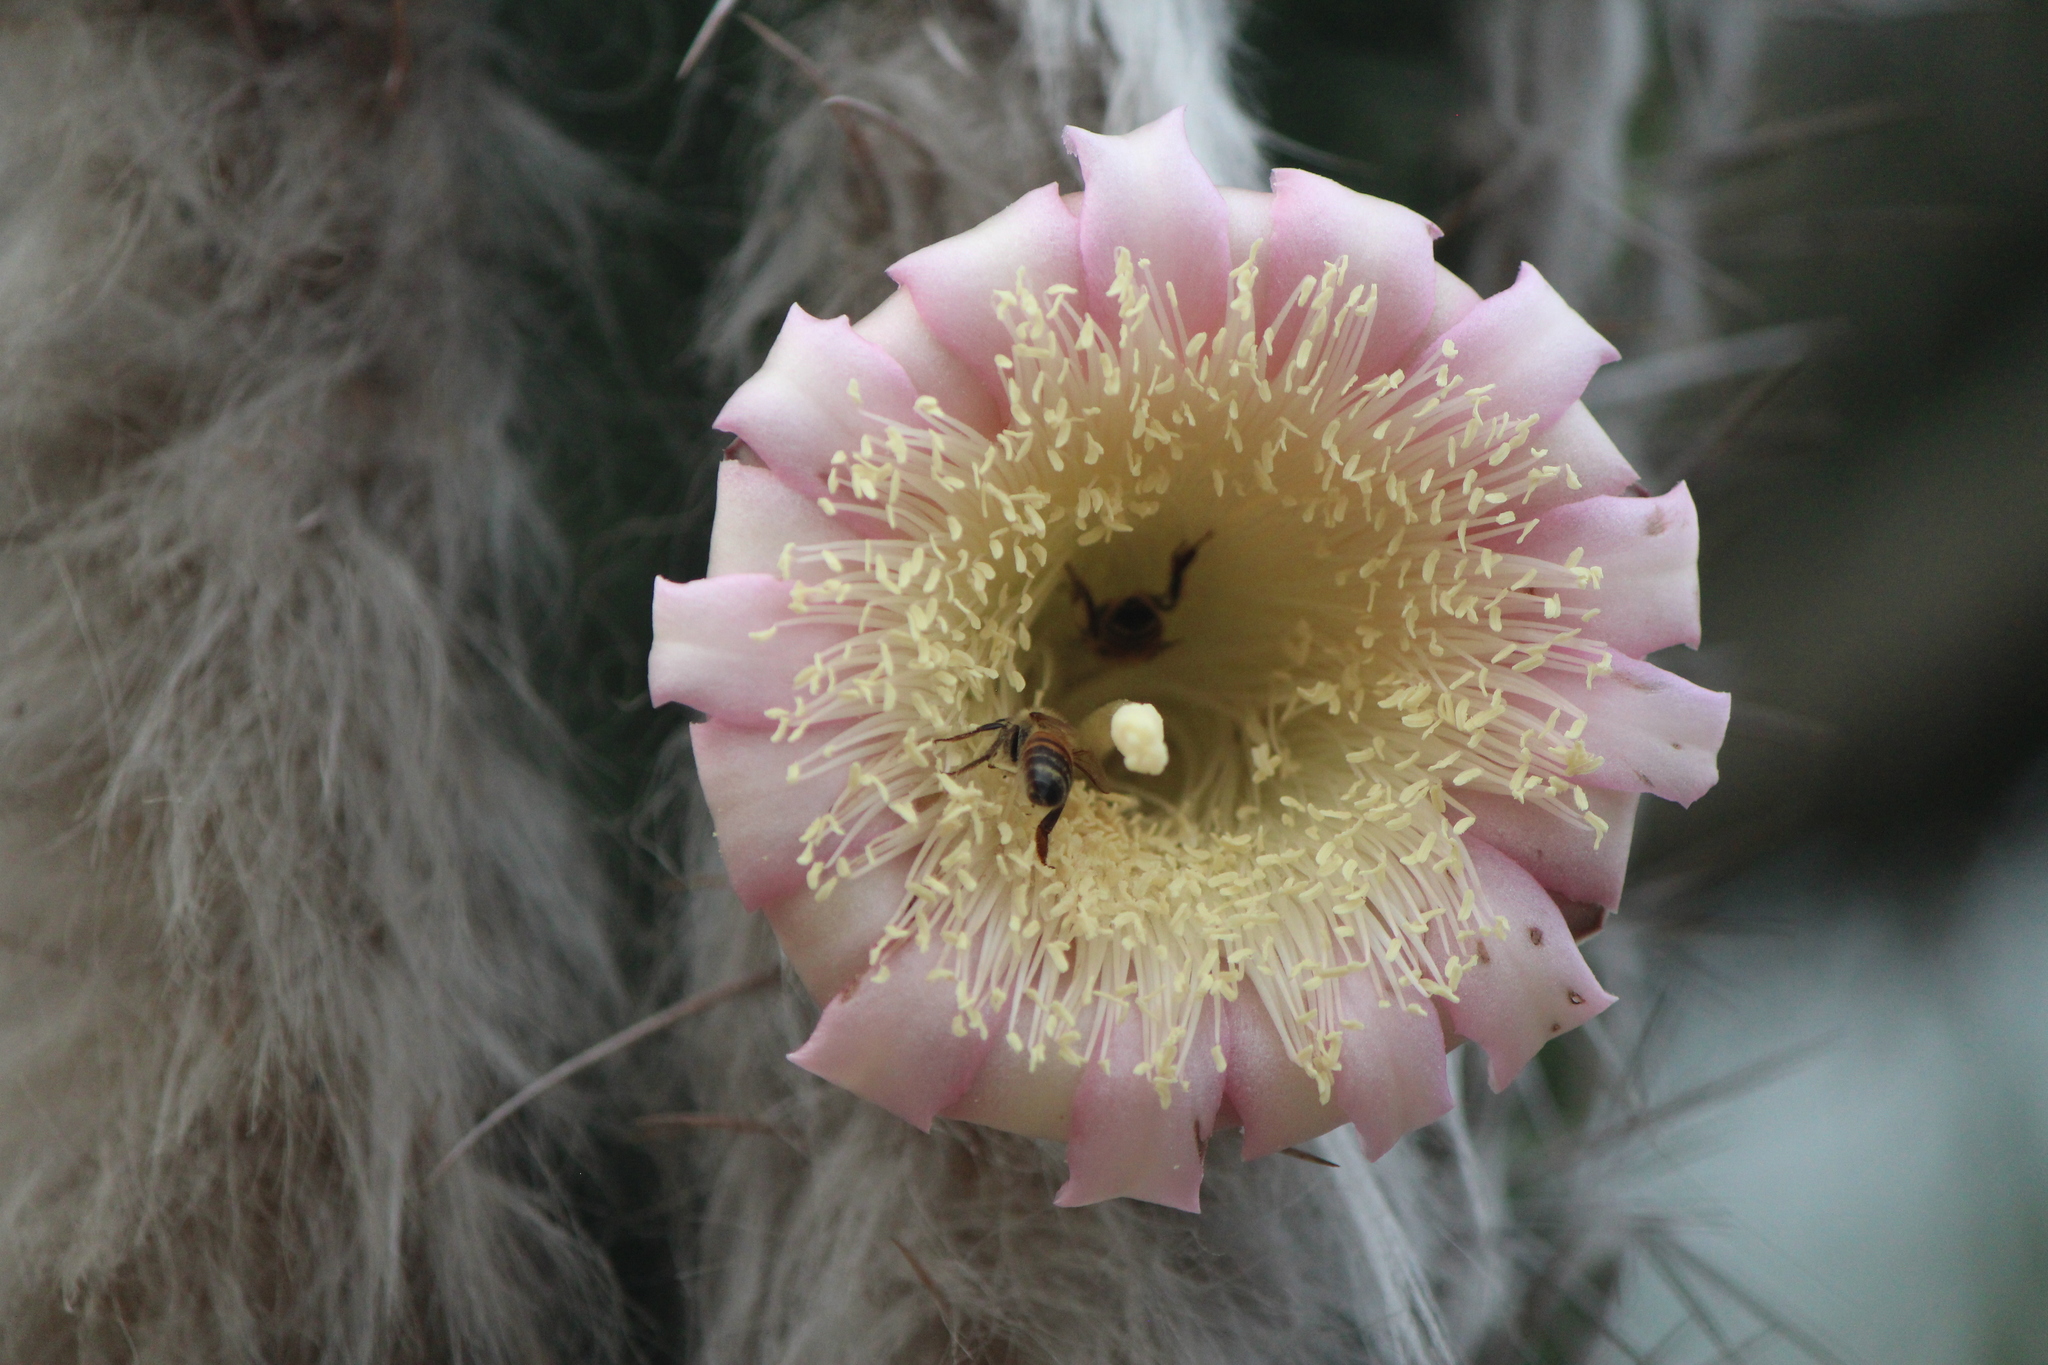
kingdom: Animalia
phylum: Arthropoda
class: Insecta
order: Hymenoptera
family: Apidae
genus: Apis
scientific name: Apis mellifera
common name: Honey bee
